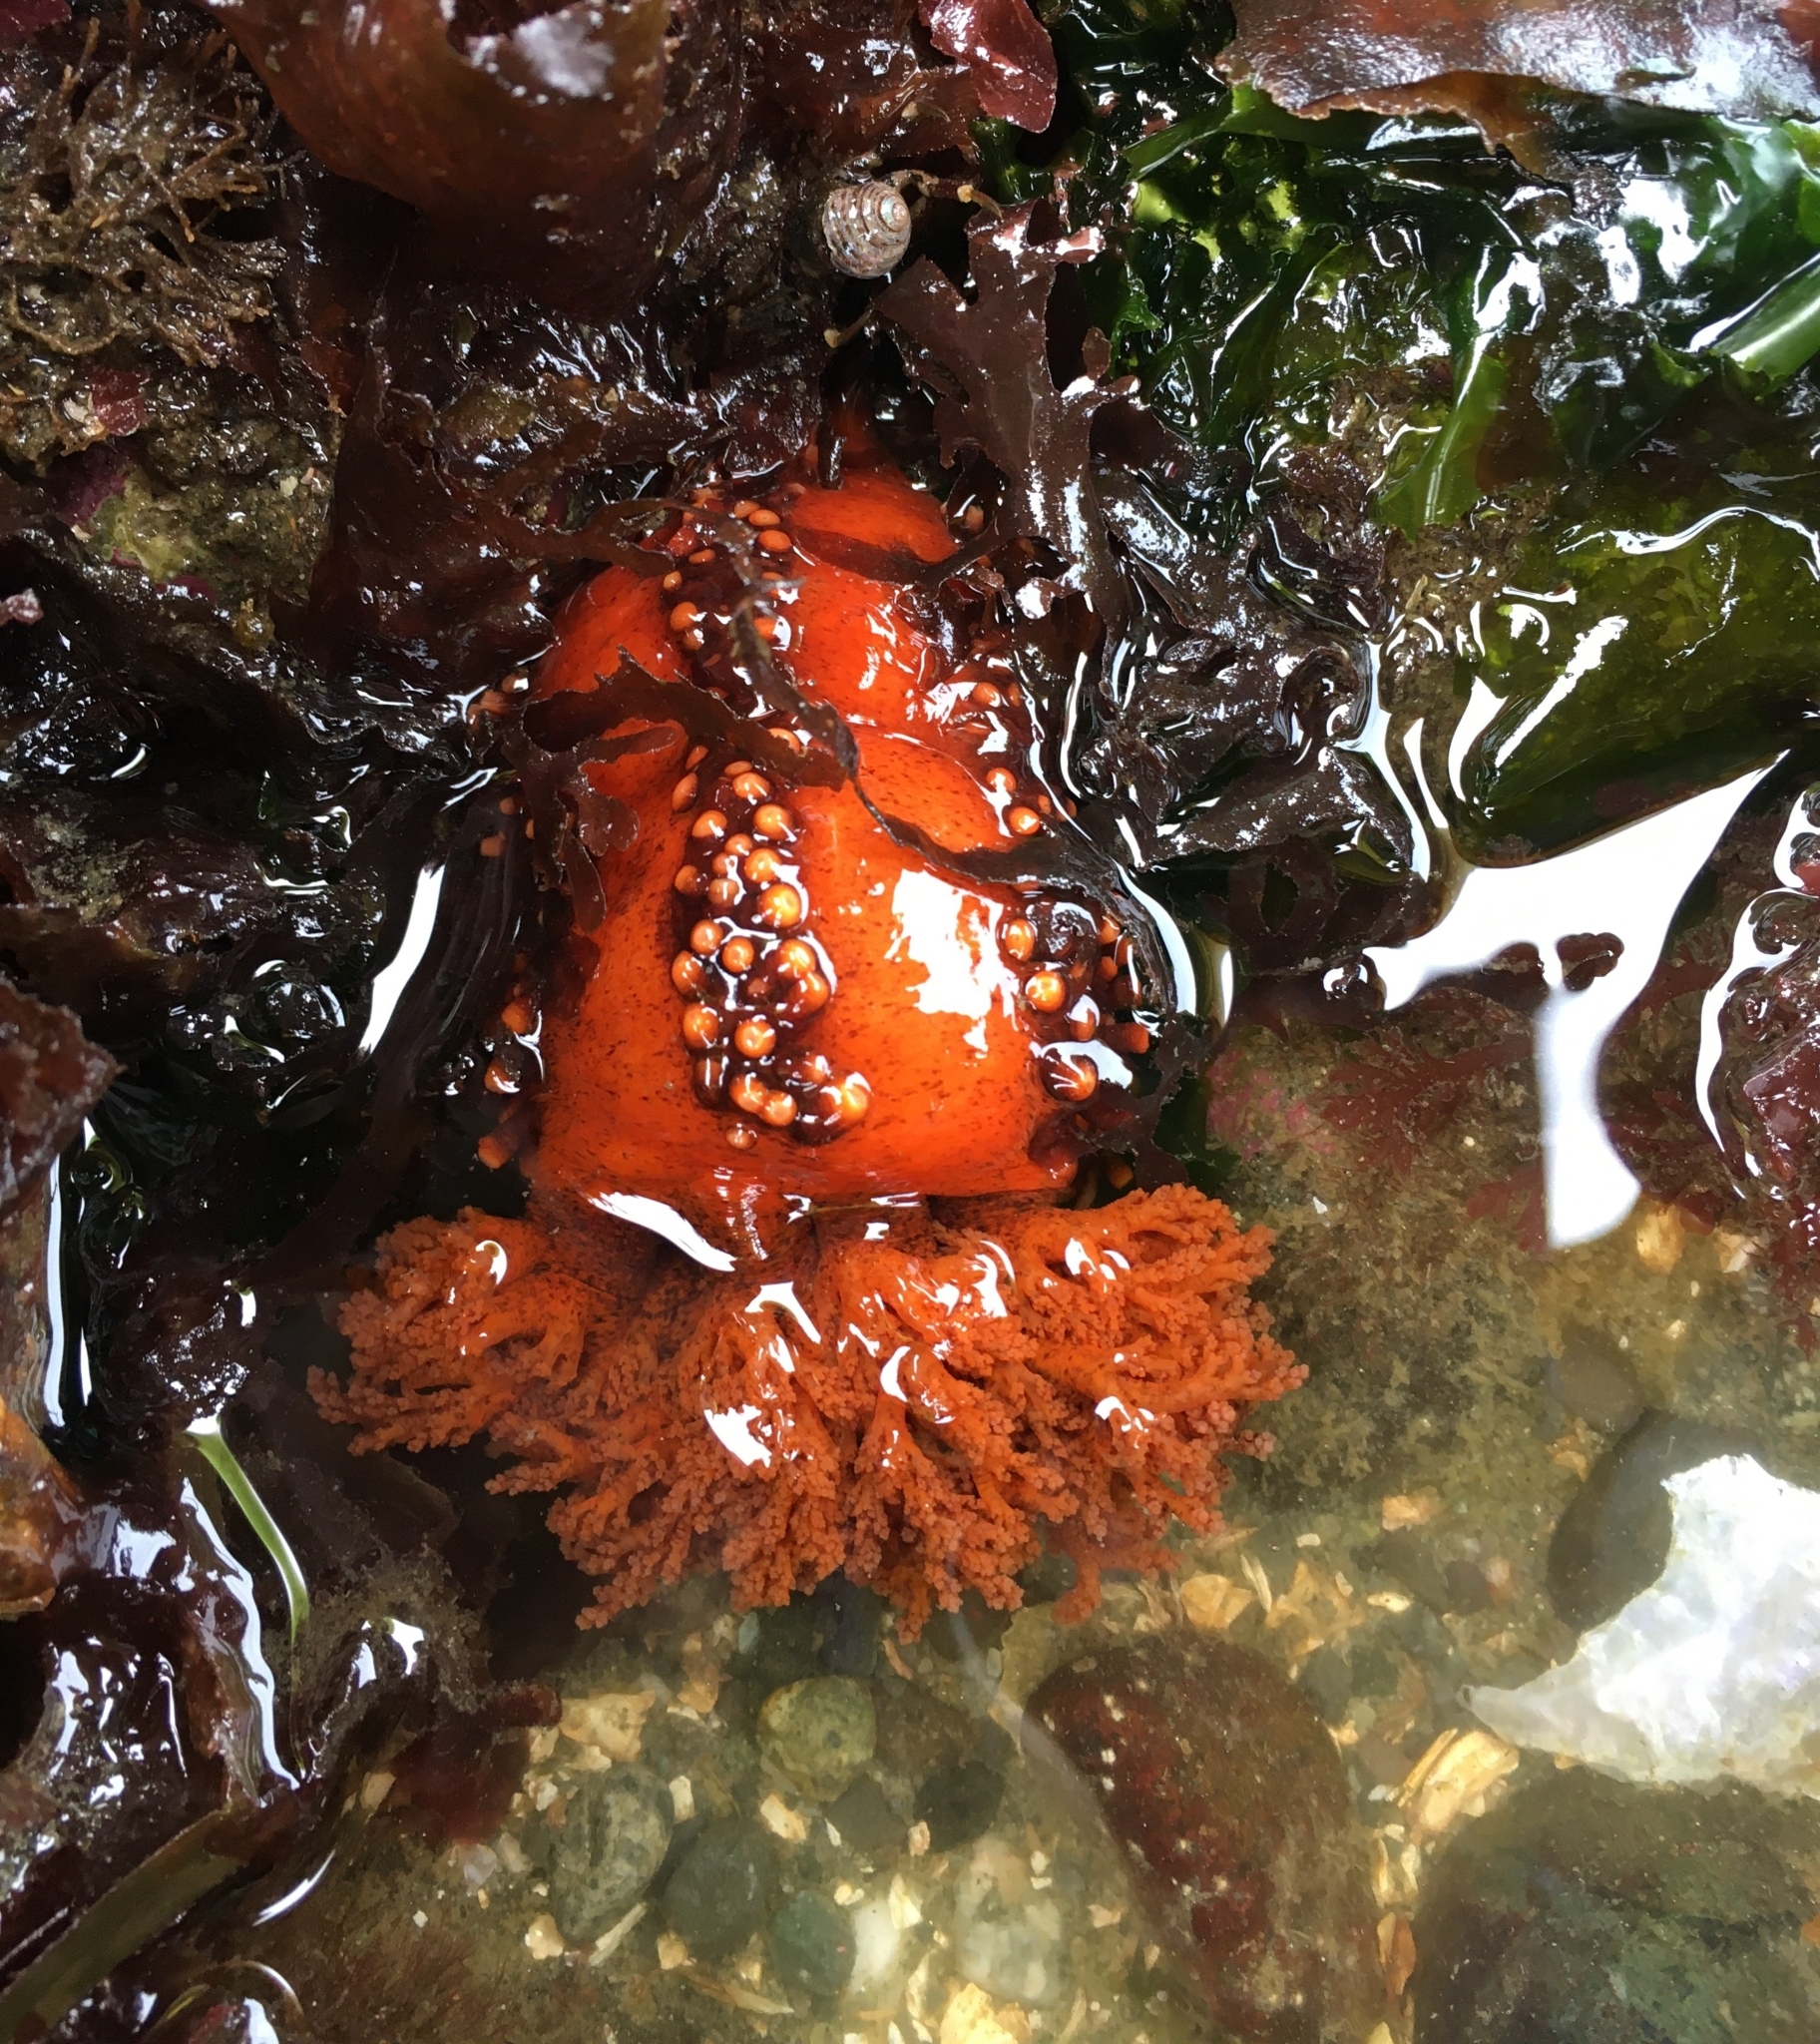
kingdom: Animalia
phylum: Echinodermata
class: Holothuroidea
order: Dendrochirotida
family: Cucumariidae
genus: Cucumaria
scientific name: Cucumaria miniata
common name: Orange sea cucumber
